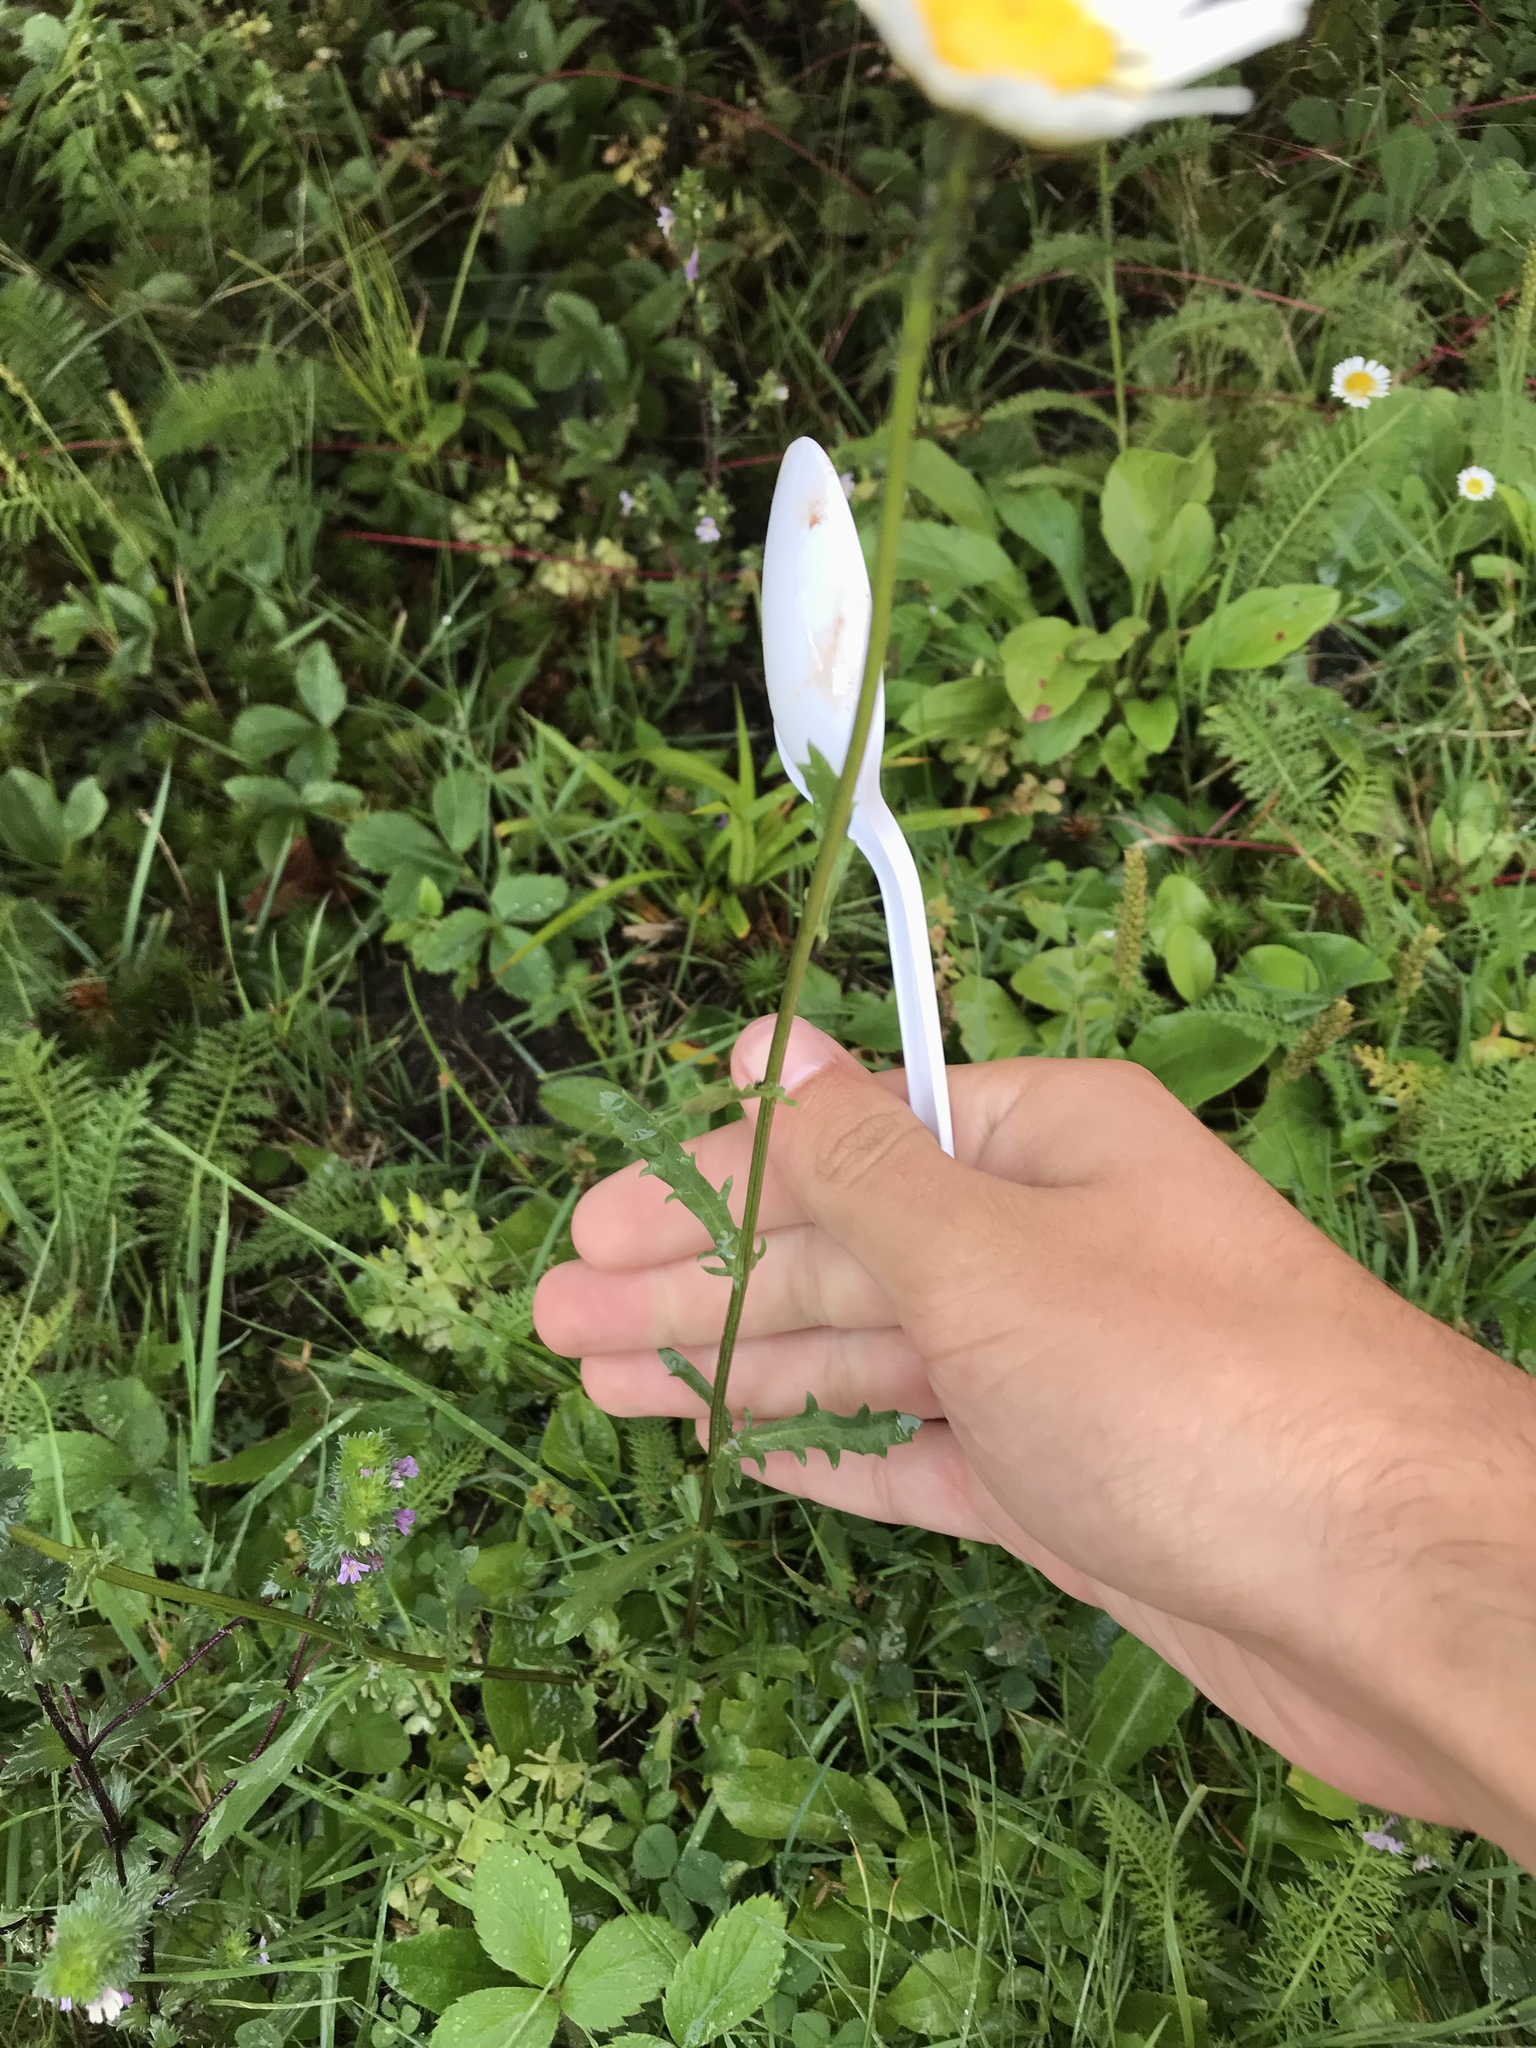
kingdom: Plantae
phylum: Tracheophyta
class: Magnoliopsida
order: Asterales
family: Asteraceae
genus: Leucanthemum
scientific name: Leucanthemum vulgare
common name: Oxeye daisy
